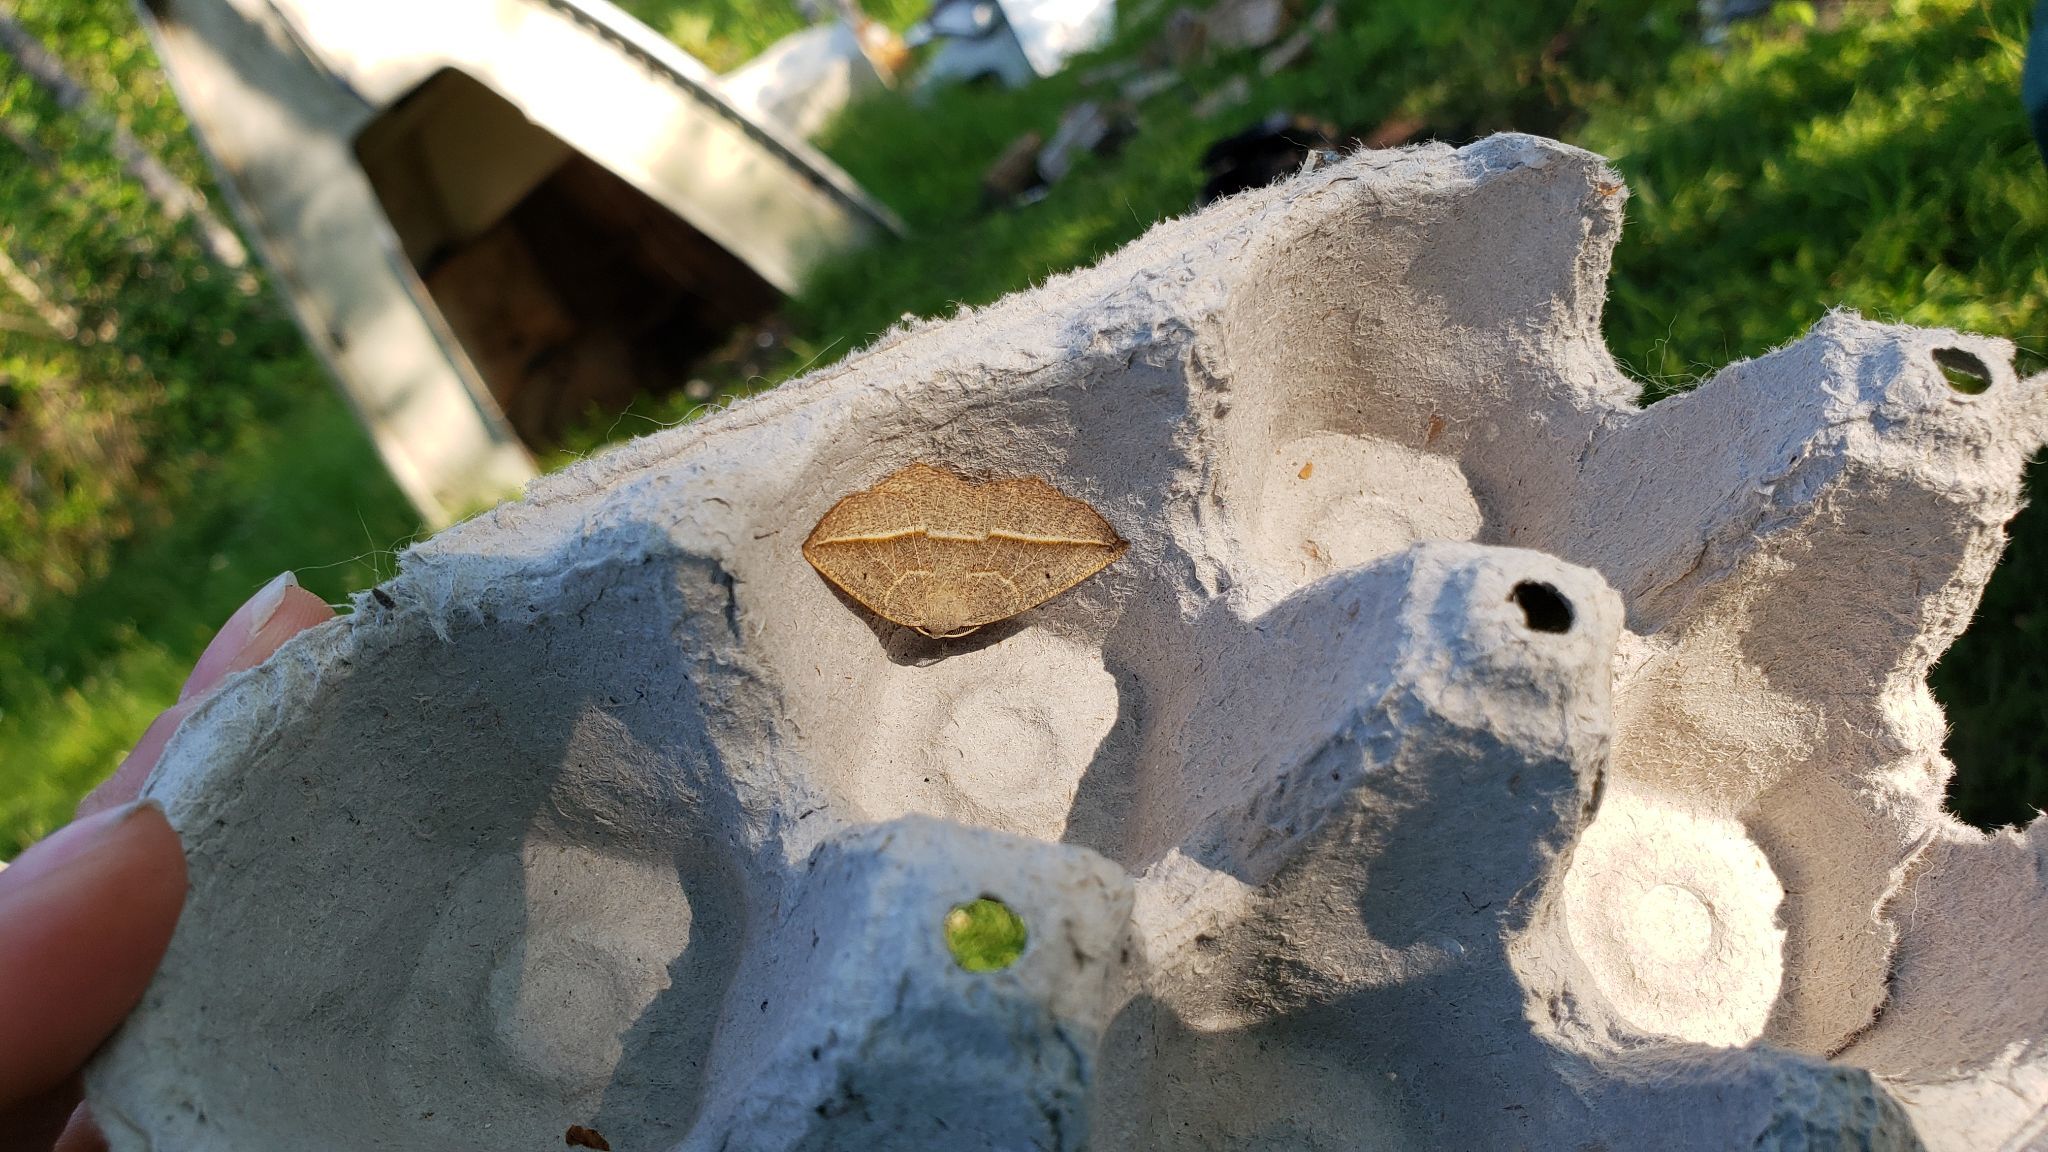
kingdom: Animalia
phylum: Arthropoda
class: Insecta
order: Lepidoptera
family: Geometridae
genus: Eusarca
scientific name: Eusarca confusaria
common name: Confused eusarca
